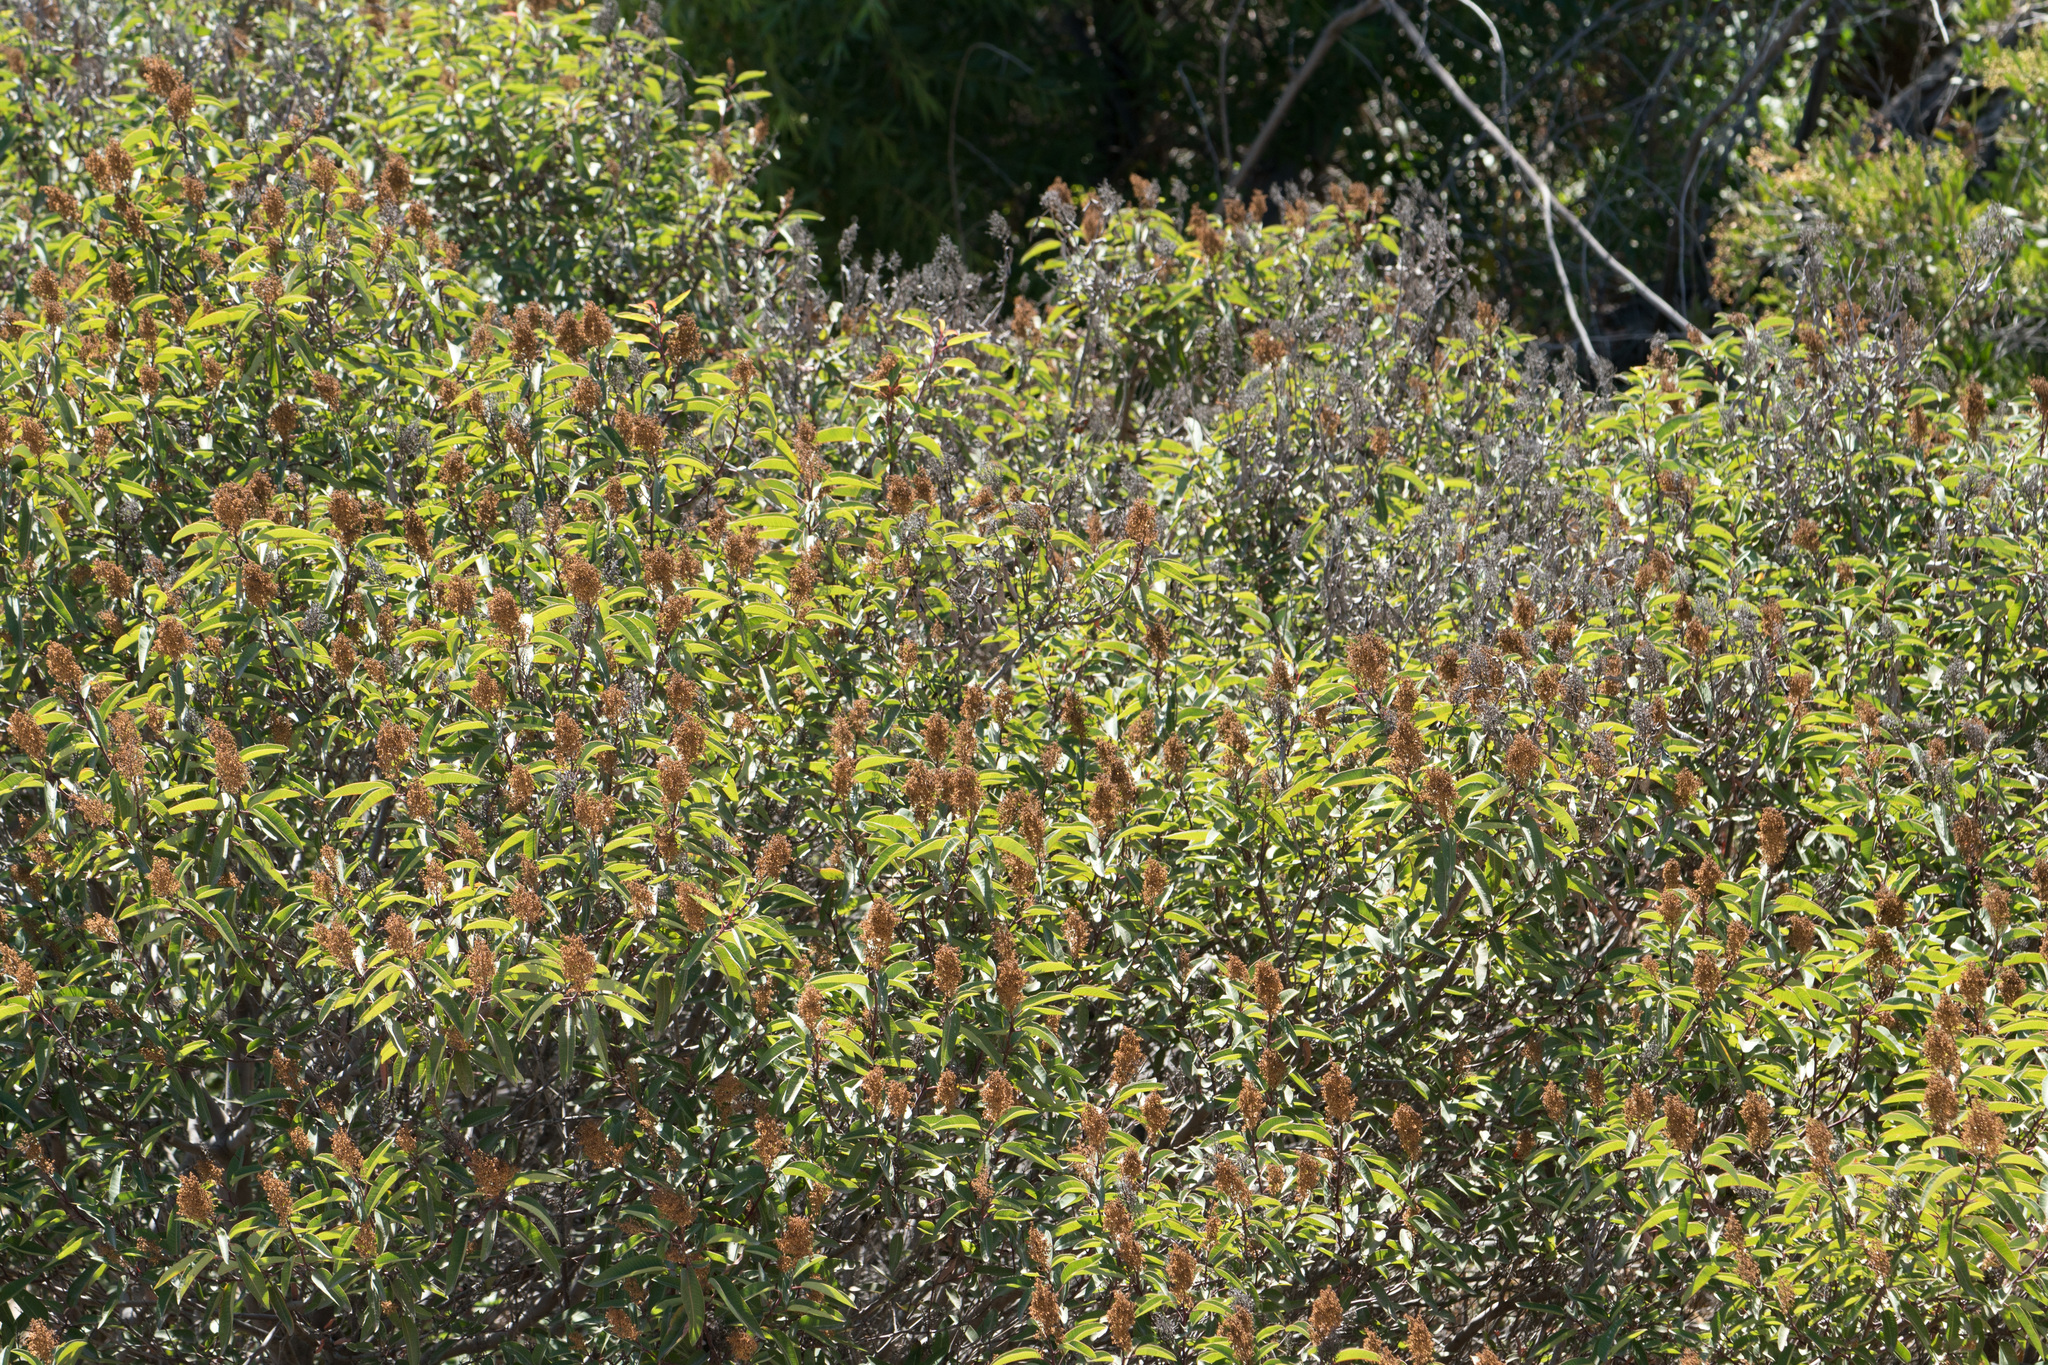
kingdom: Plantae
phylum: Tracheophyta
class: Magnoliopsida
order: Sapindales
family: Anacardiaceae
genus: Malosma
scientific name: Malosma laurina
